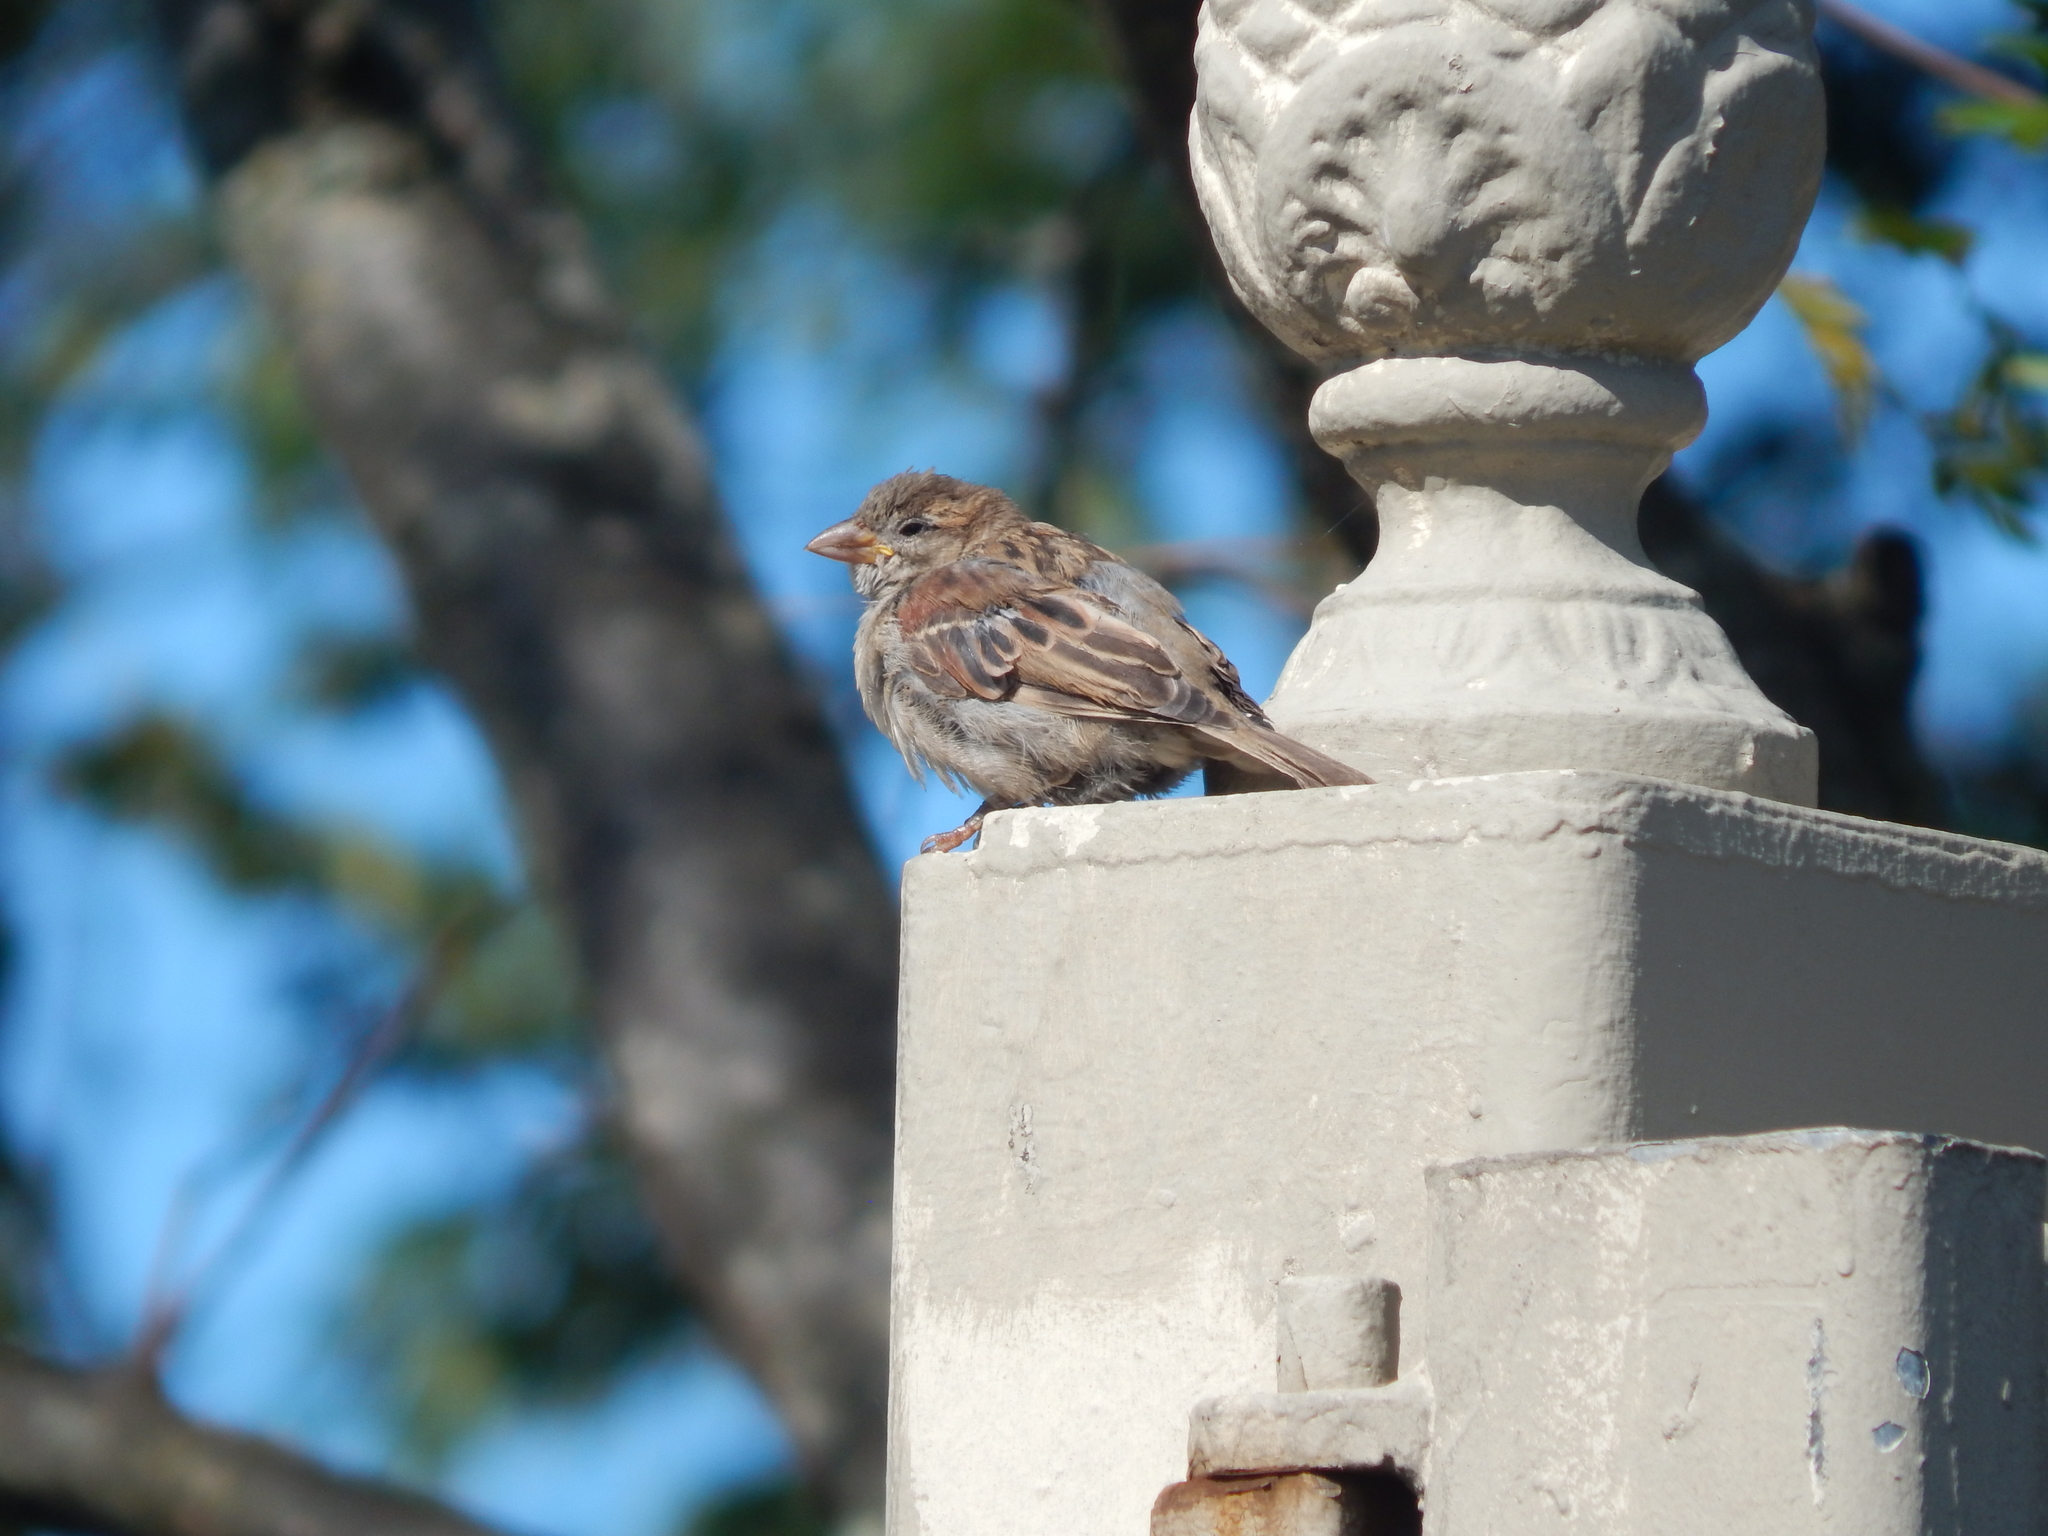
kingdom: Animalia
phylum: Chordata
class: Aves
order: Passeriformes
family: Passeridae
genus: Passer
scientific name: Passer domesticus
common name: House sparrow
